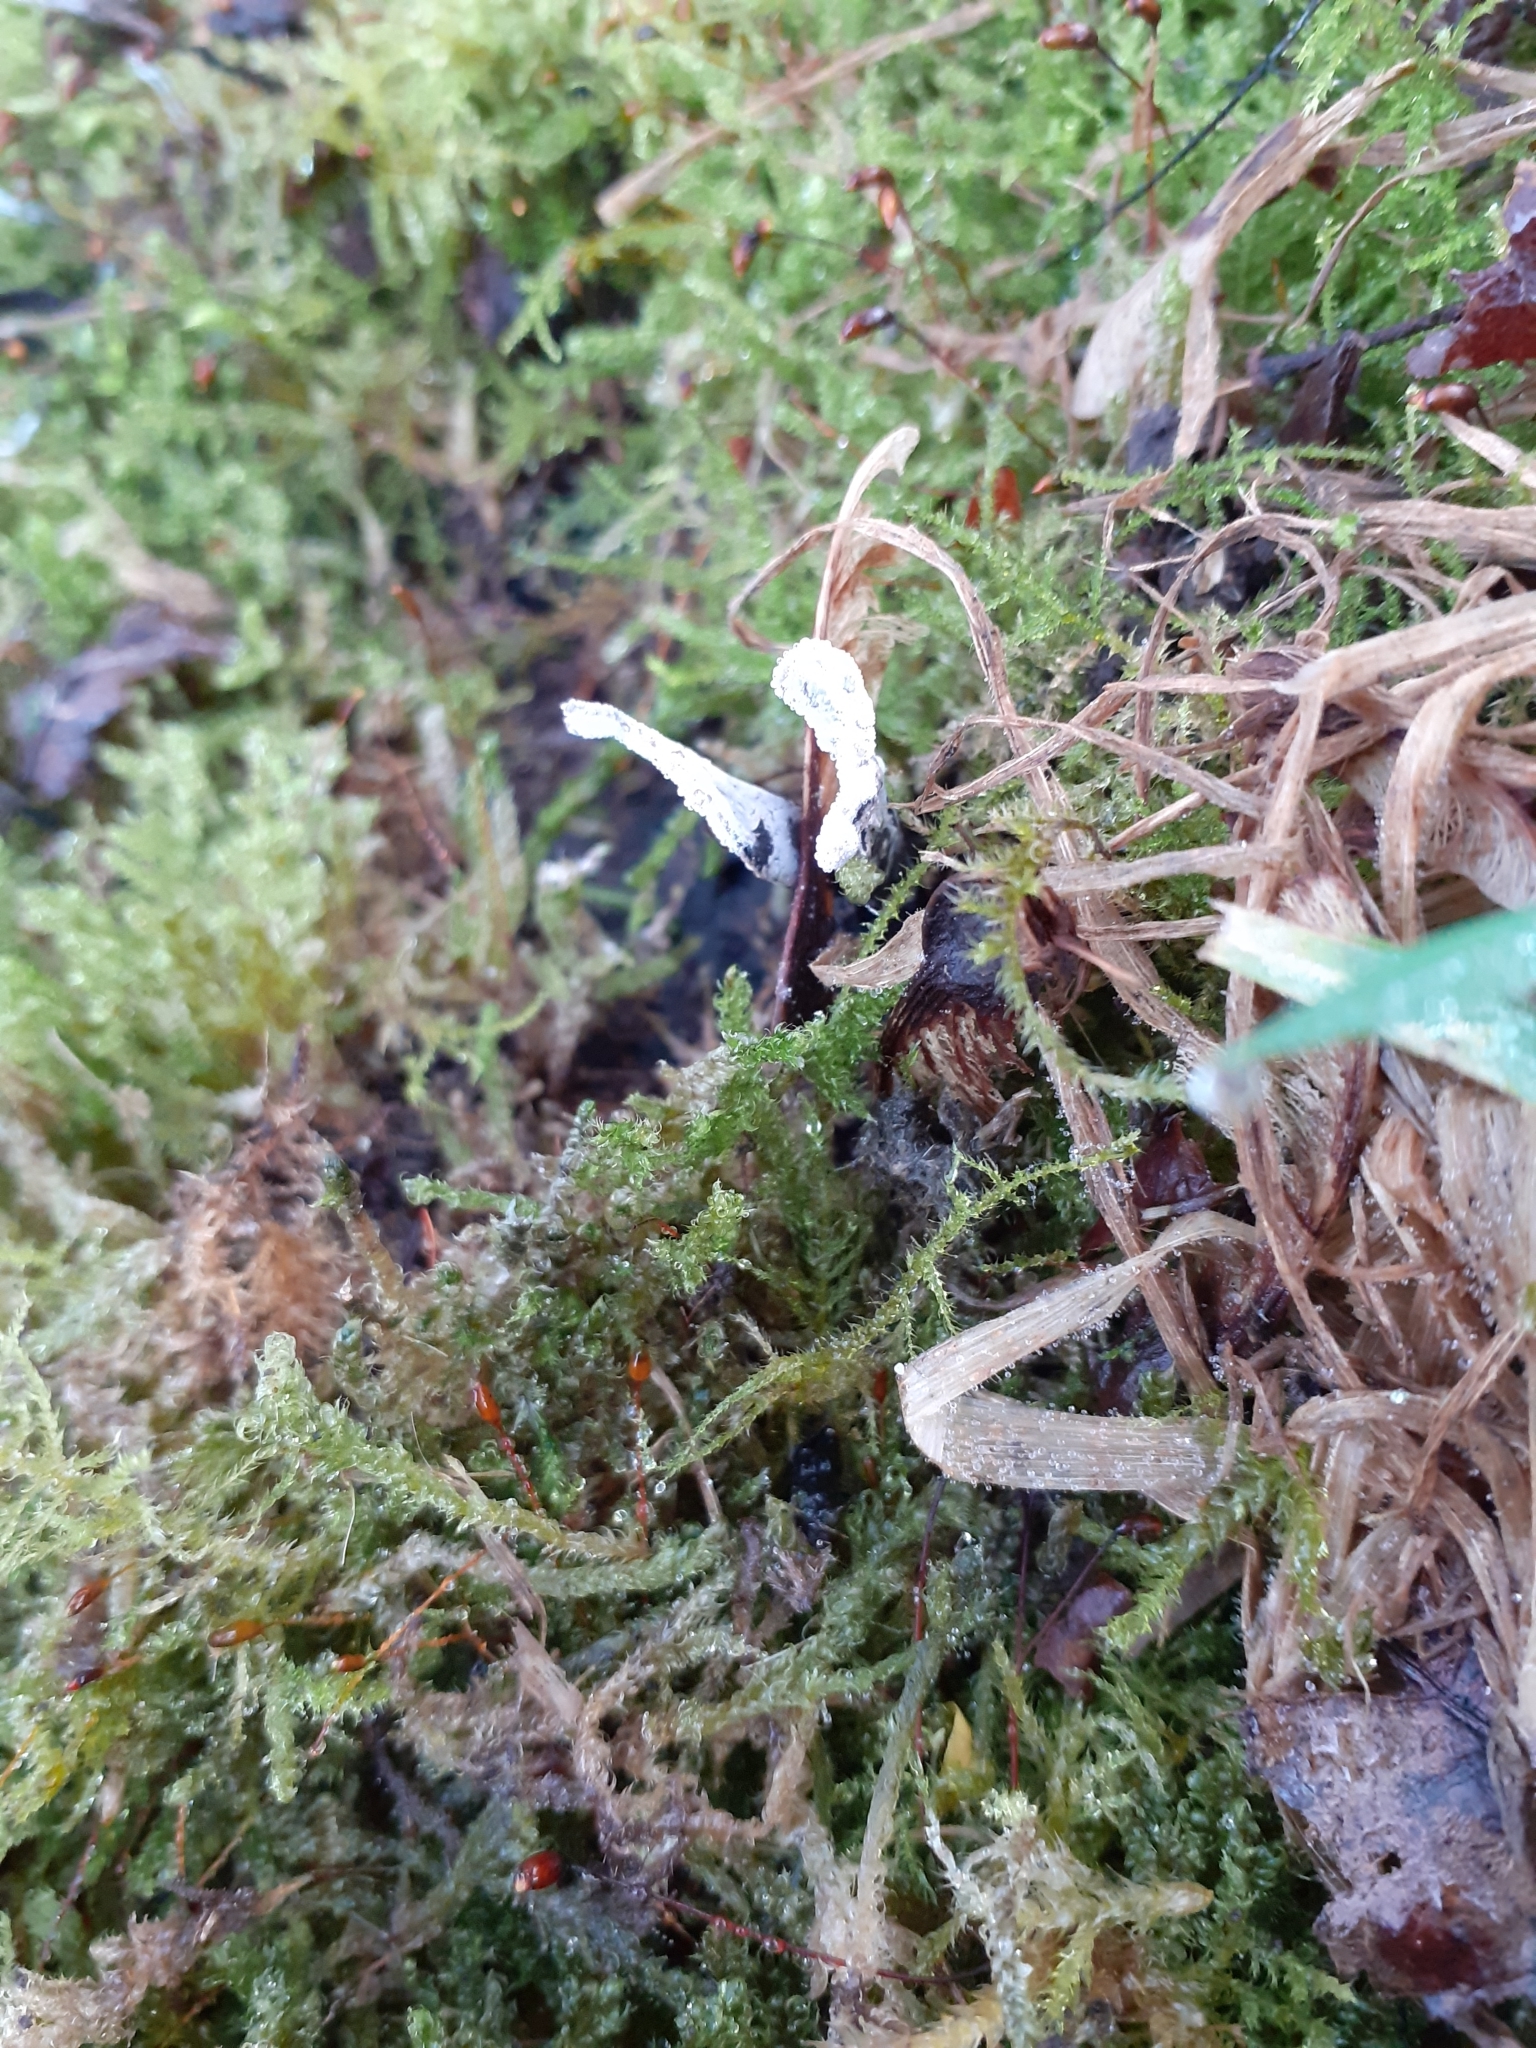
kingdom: Fungi
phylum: Ascomycota
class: Sordariomycetes
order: Xylariales
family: Xylariaceae
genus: Xylaria
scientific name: Xylaria hypoxylon
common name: Candle-snuff fungus
